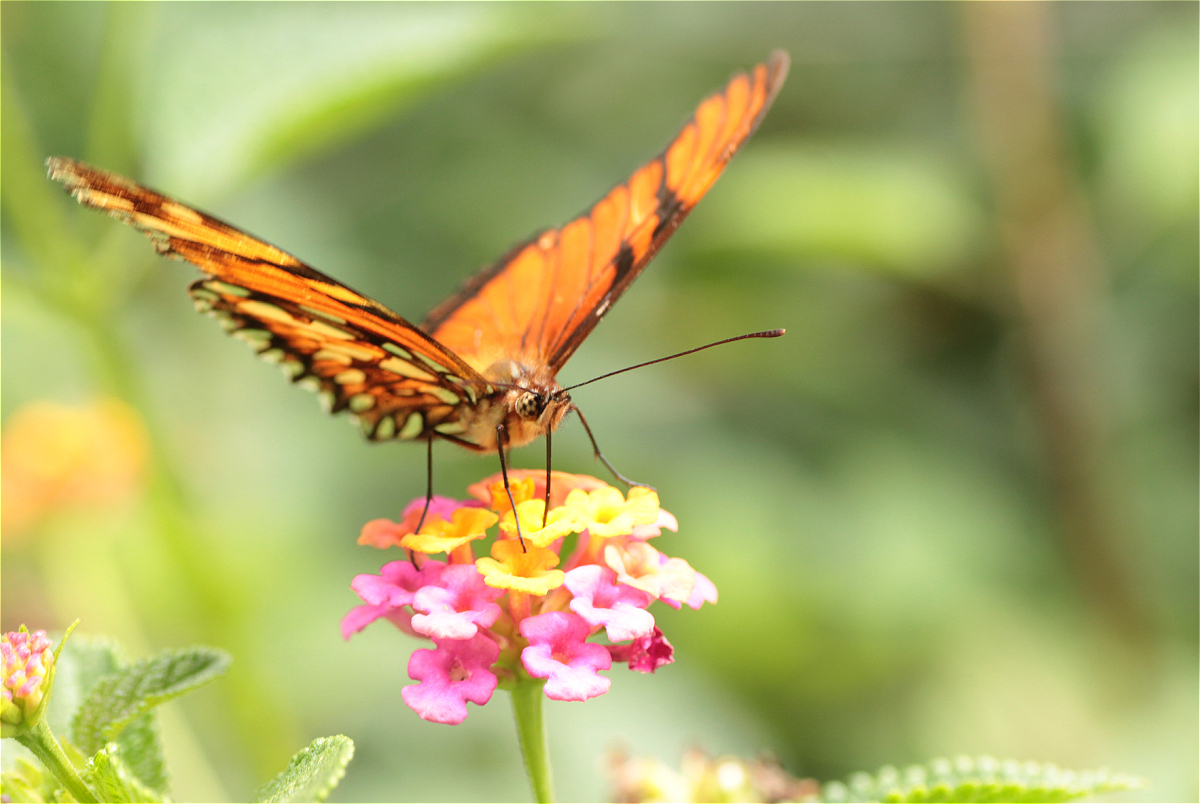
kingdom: Animalia
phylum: Arthropoda
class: Insecta
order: Lepidoptera
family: Nymphalidae
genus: Dione
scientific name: Dione juno
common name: Juno silverspot
